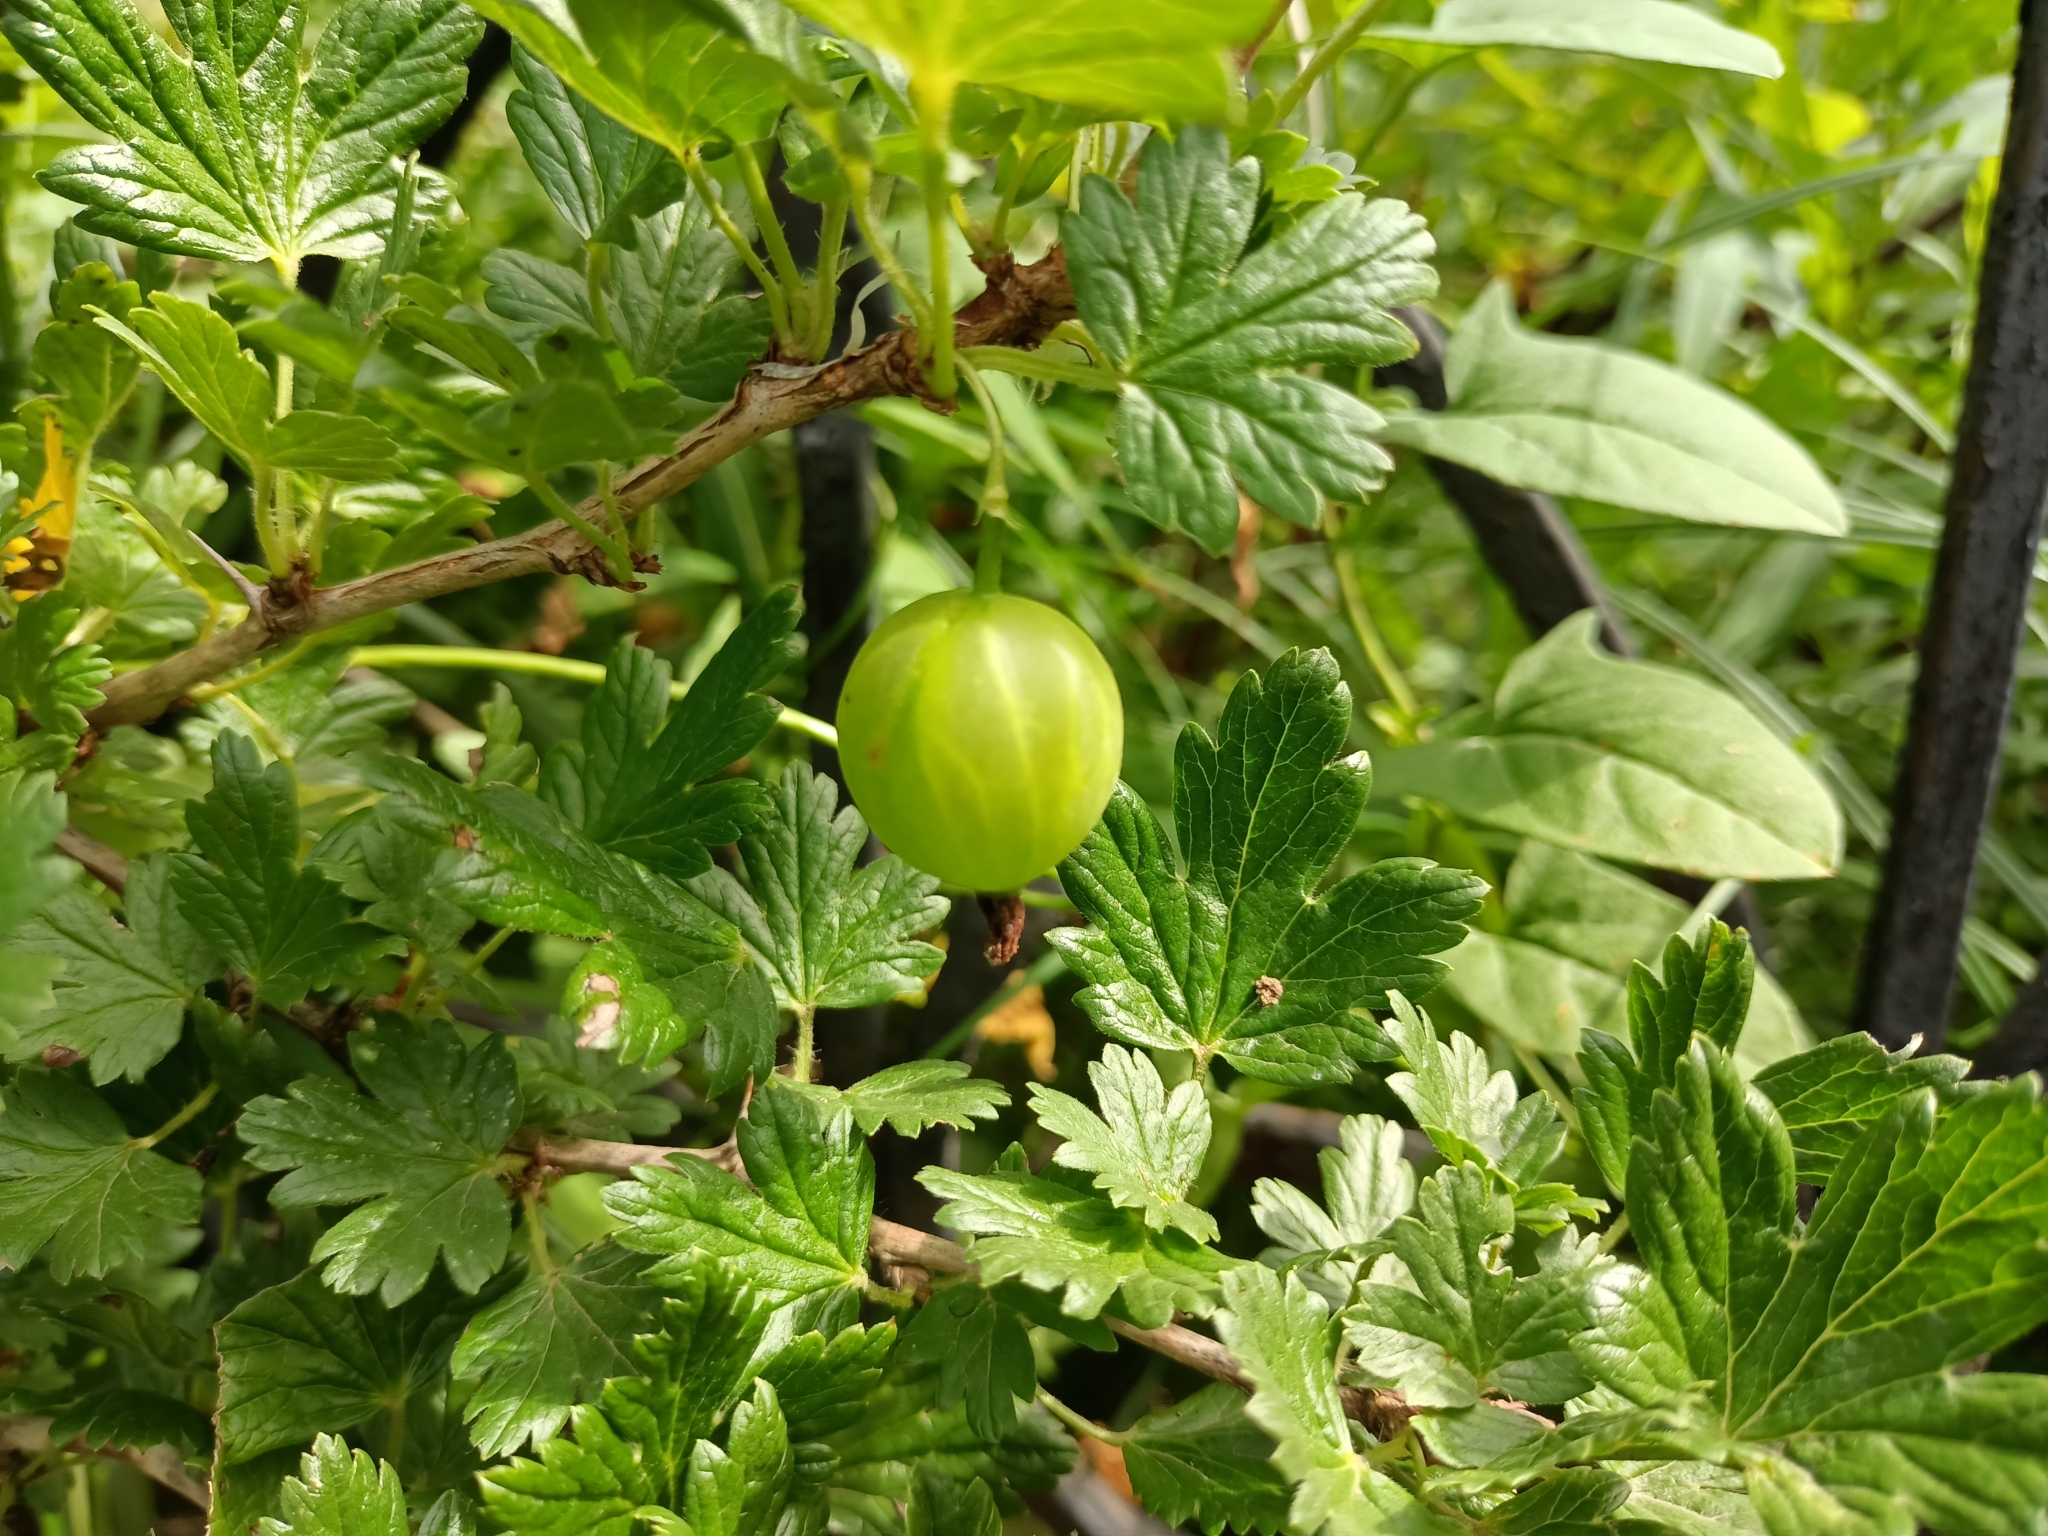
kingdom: Plantae
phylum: Tracheophyta
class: Magnoliopsida
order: Saxifragales
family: Grossulariaceae
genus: Ribes
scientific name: Ribes uva-crispa
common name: Gooseberry
